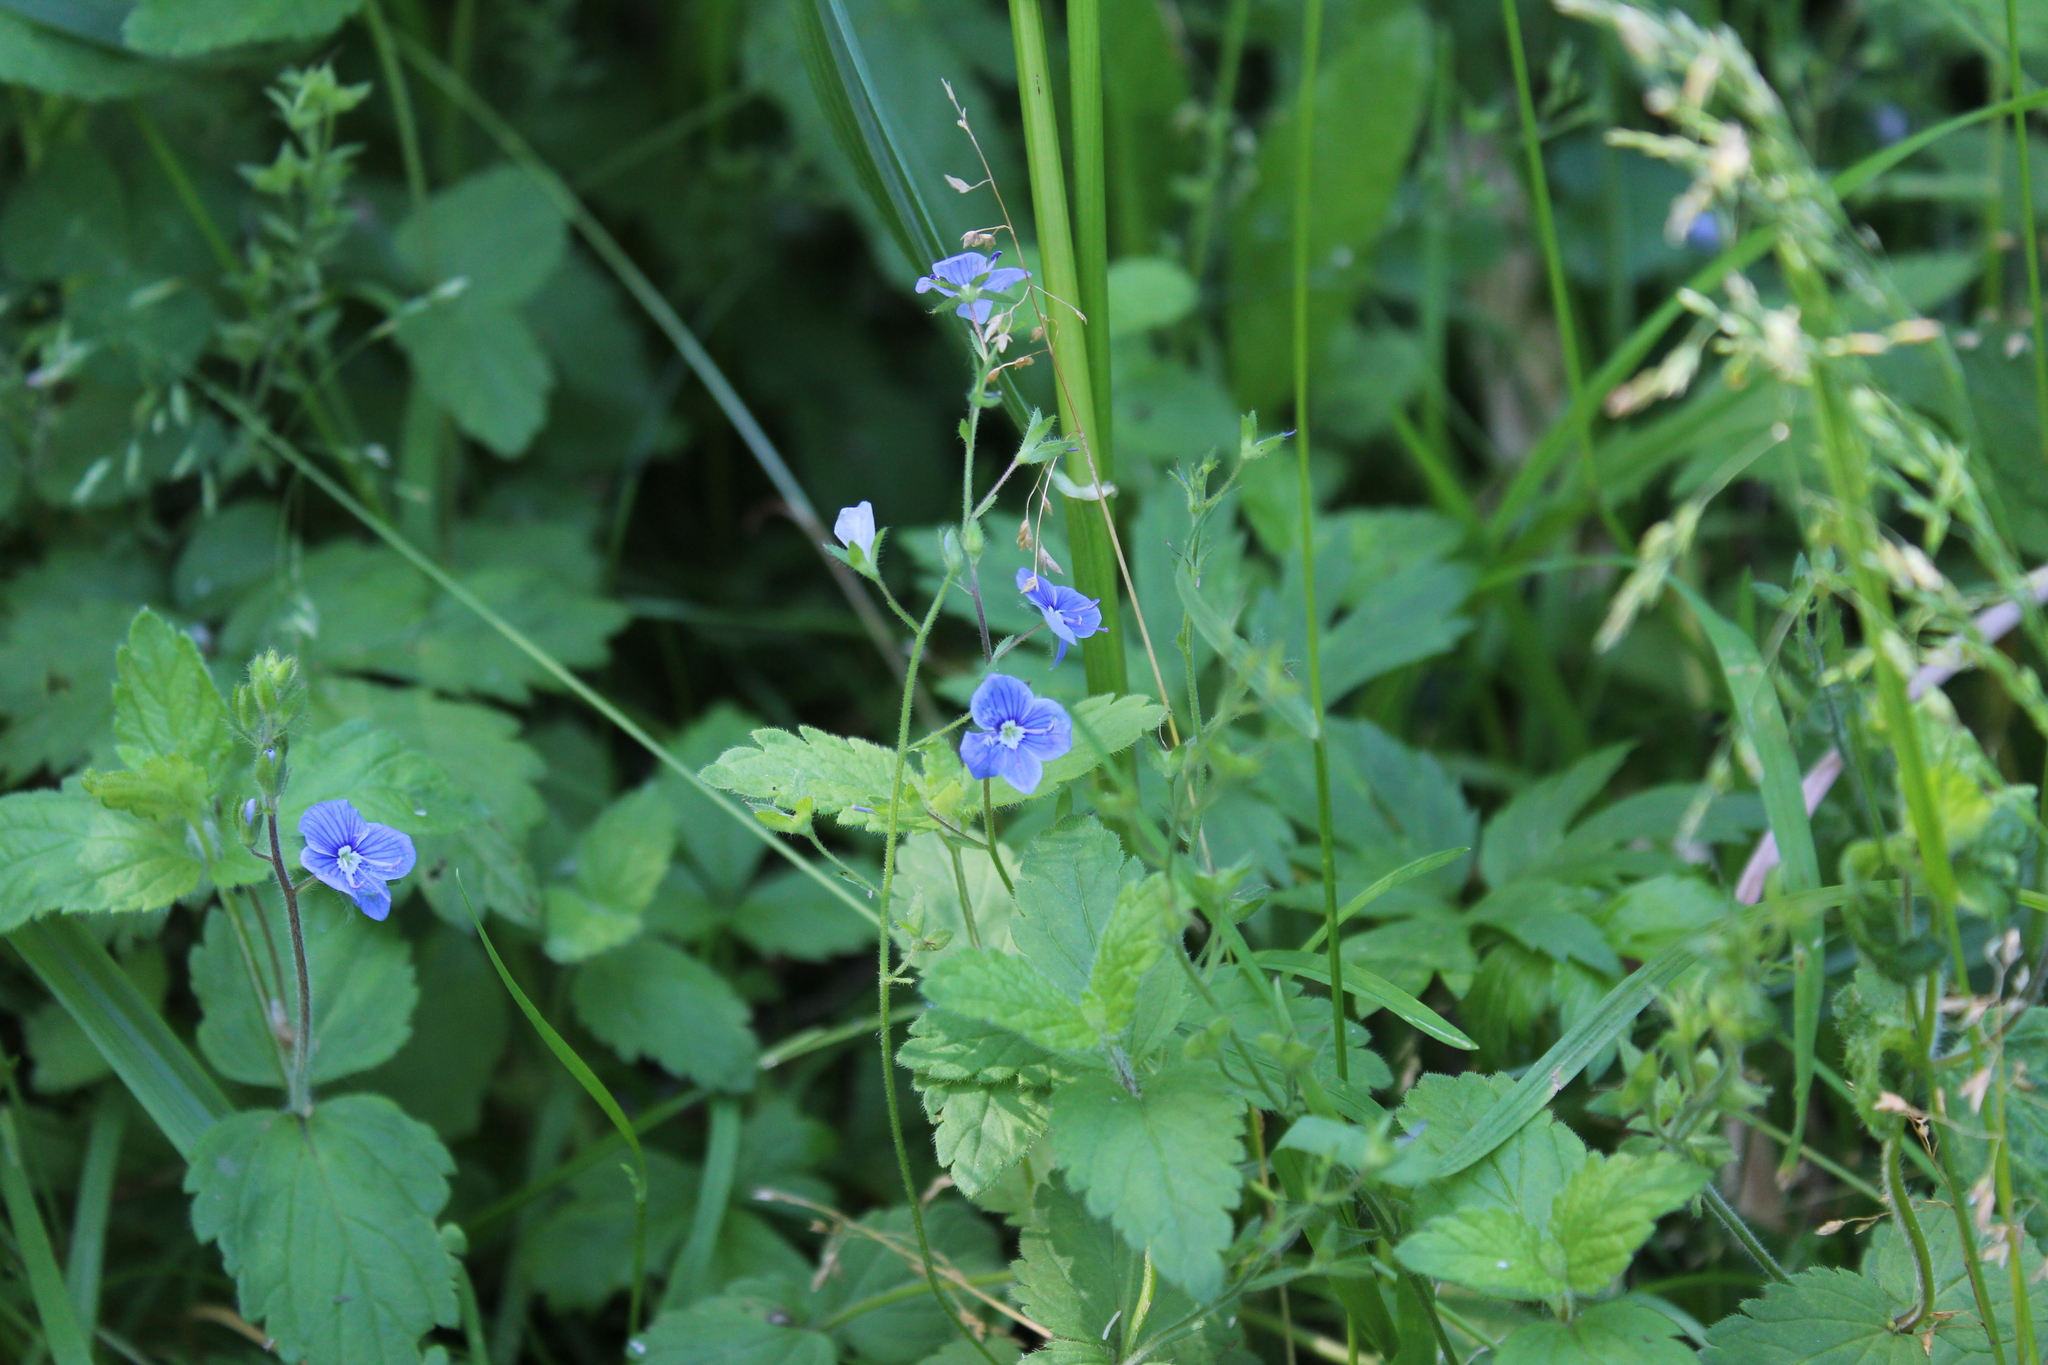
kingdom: Plantae
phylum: Tracheophyta
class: Magnoliopsida
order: Lamiales
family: Plantaginaceae
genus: Veronica
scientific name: Veronica chamaedrys
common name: Germander speedwell
